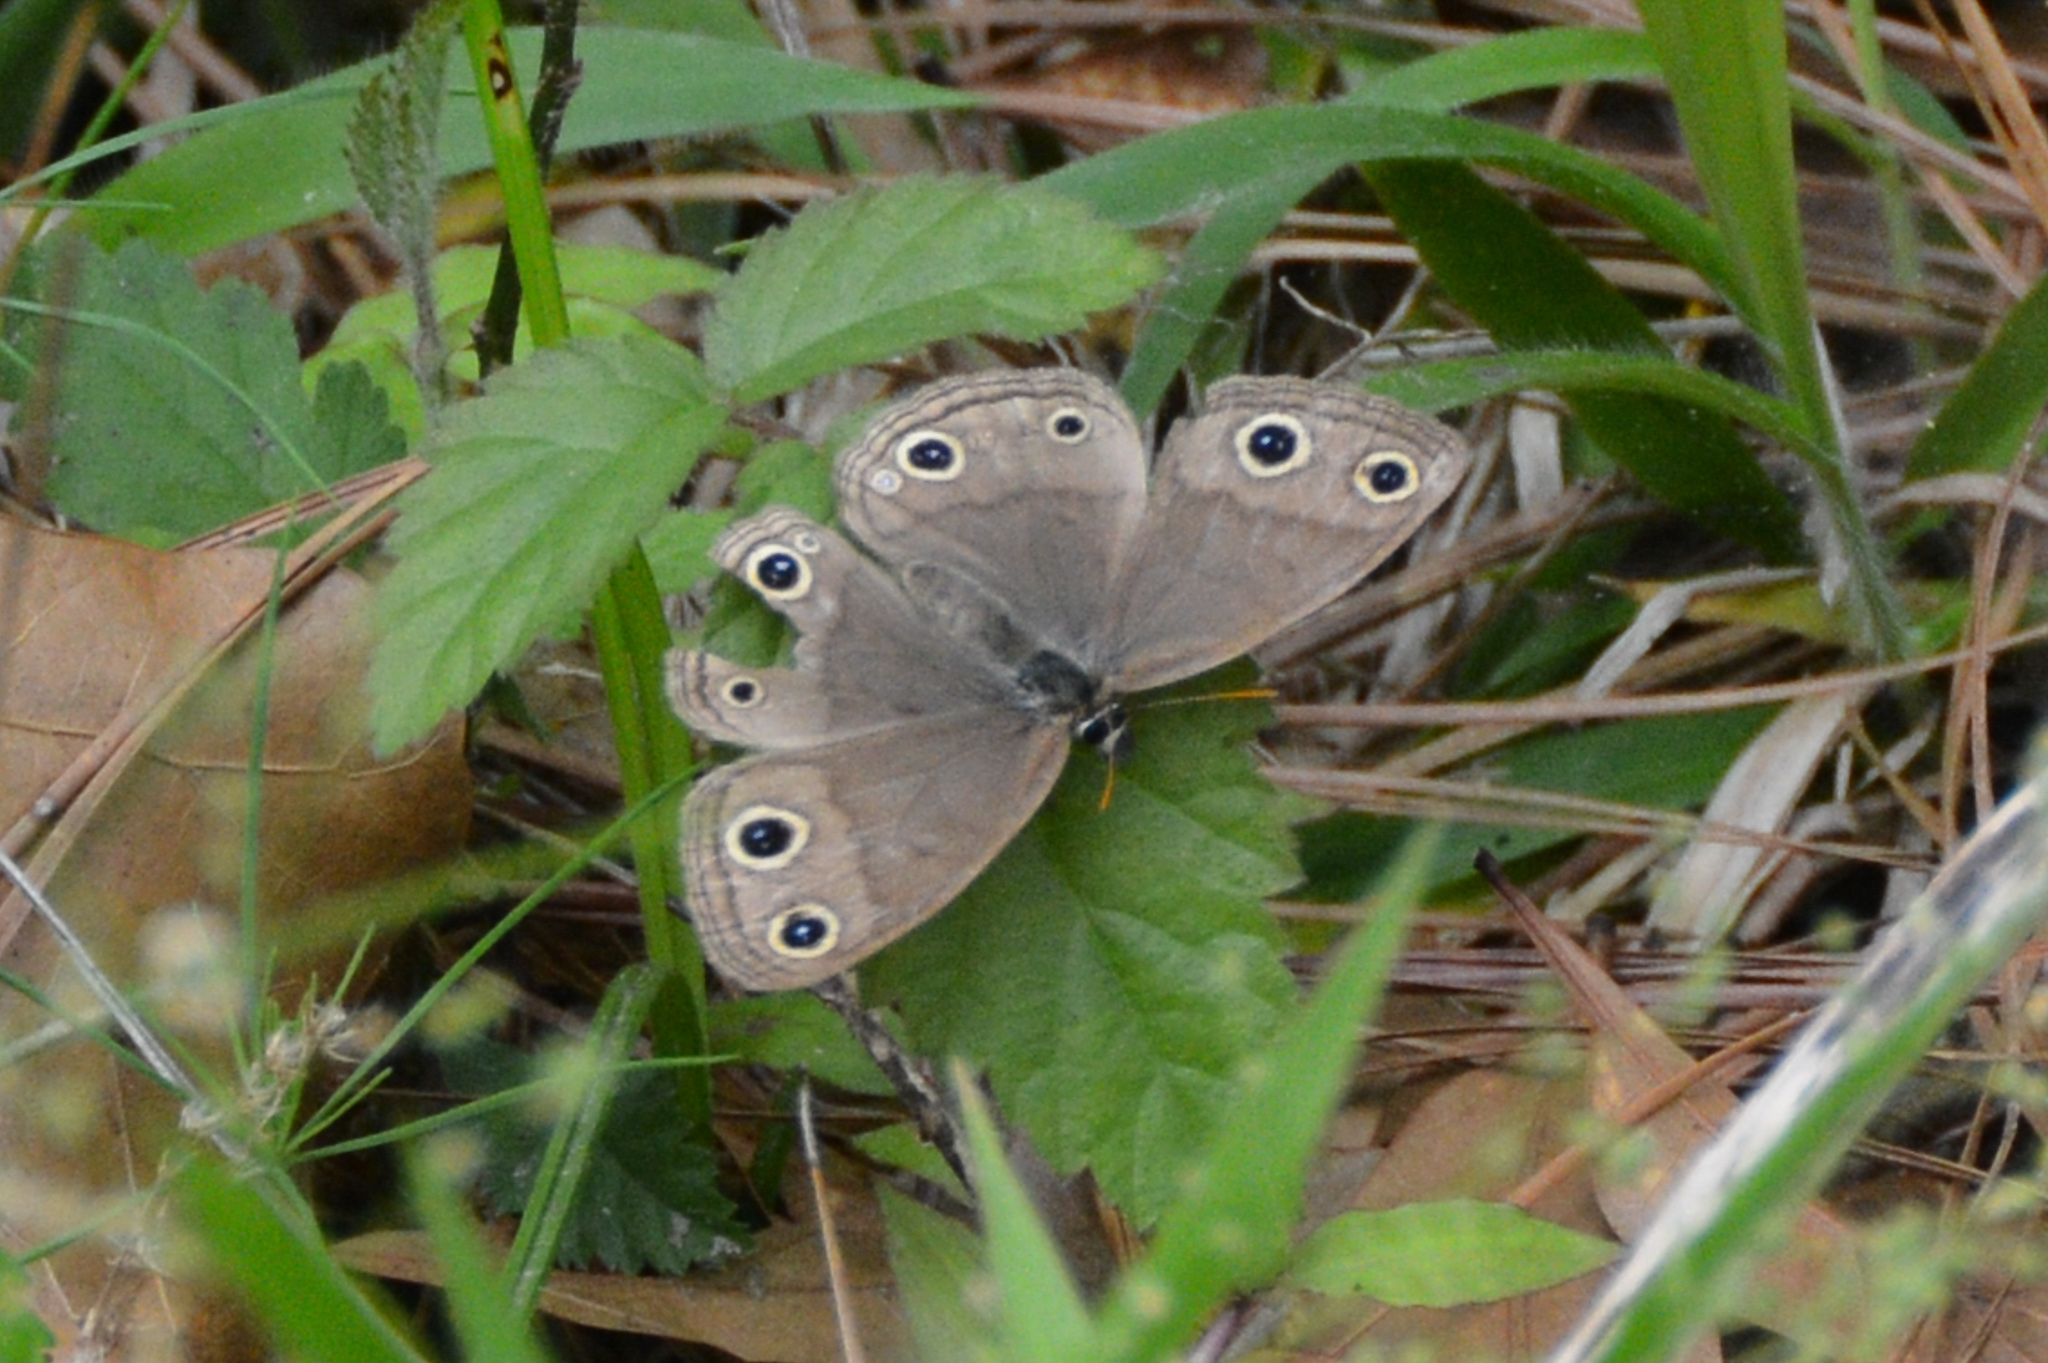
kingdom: Animalia
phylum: Arthropoda
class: Insecta
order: Lepidoptera
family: Nymphalidae
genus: Euptychia
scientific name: Euptychia cymela
